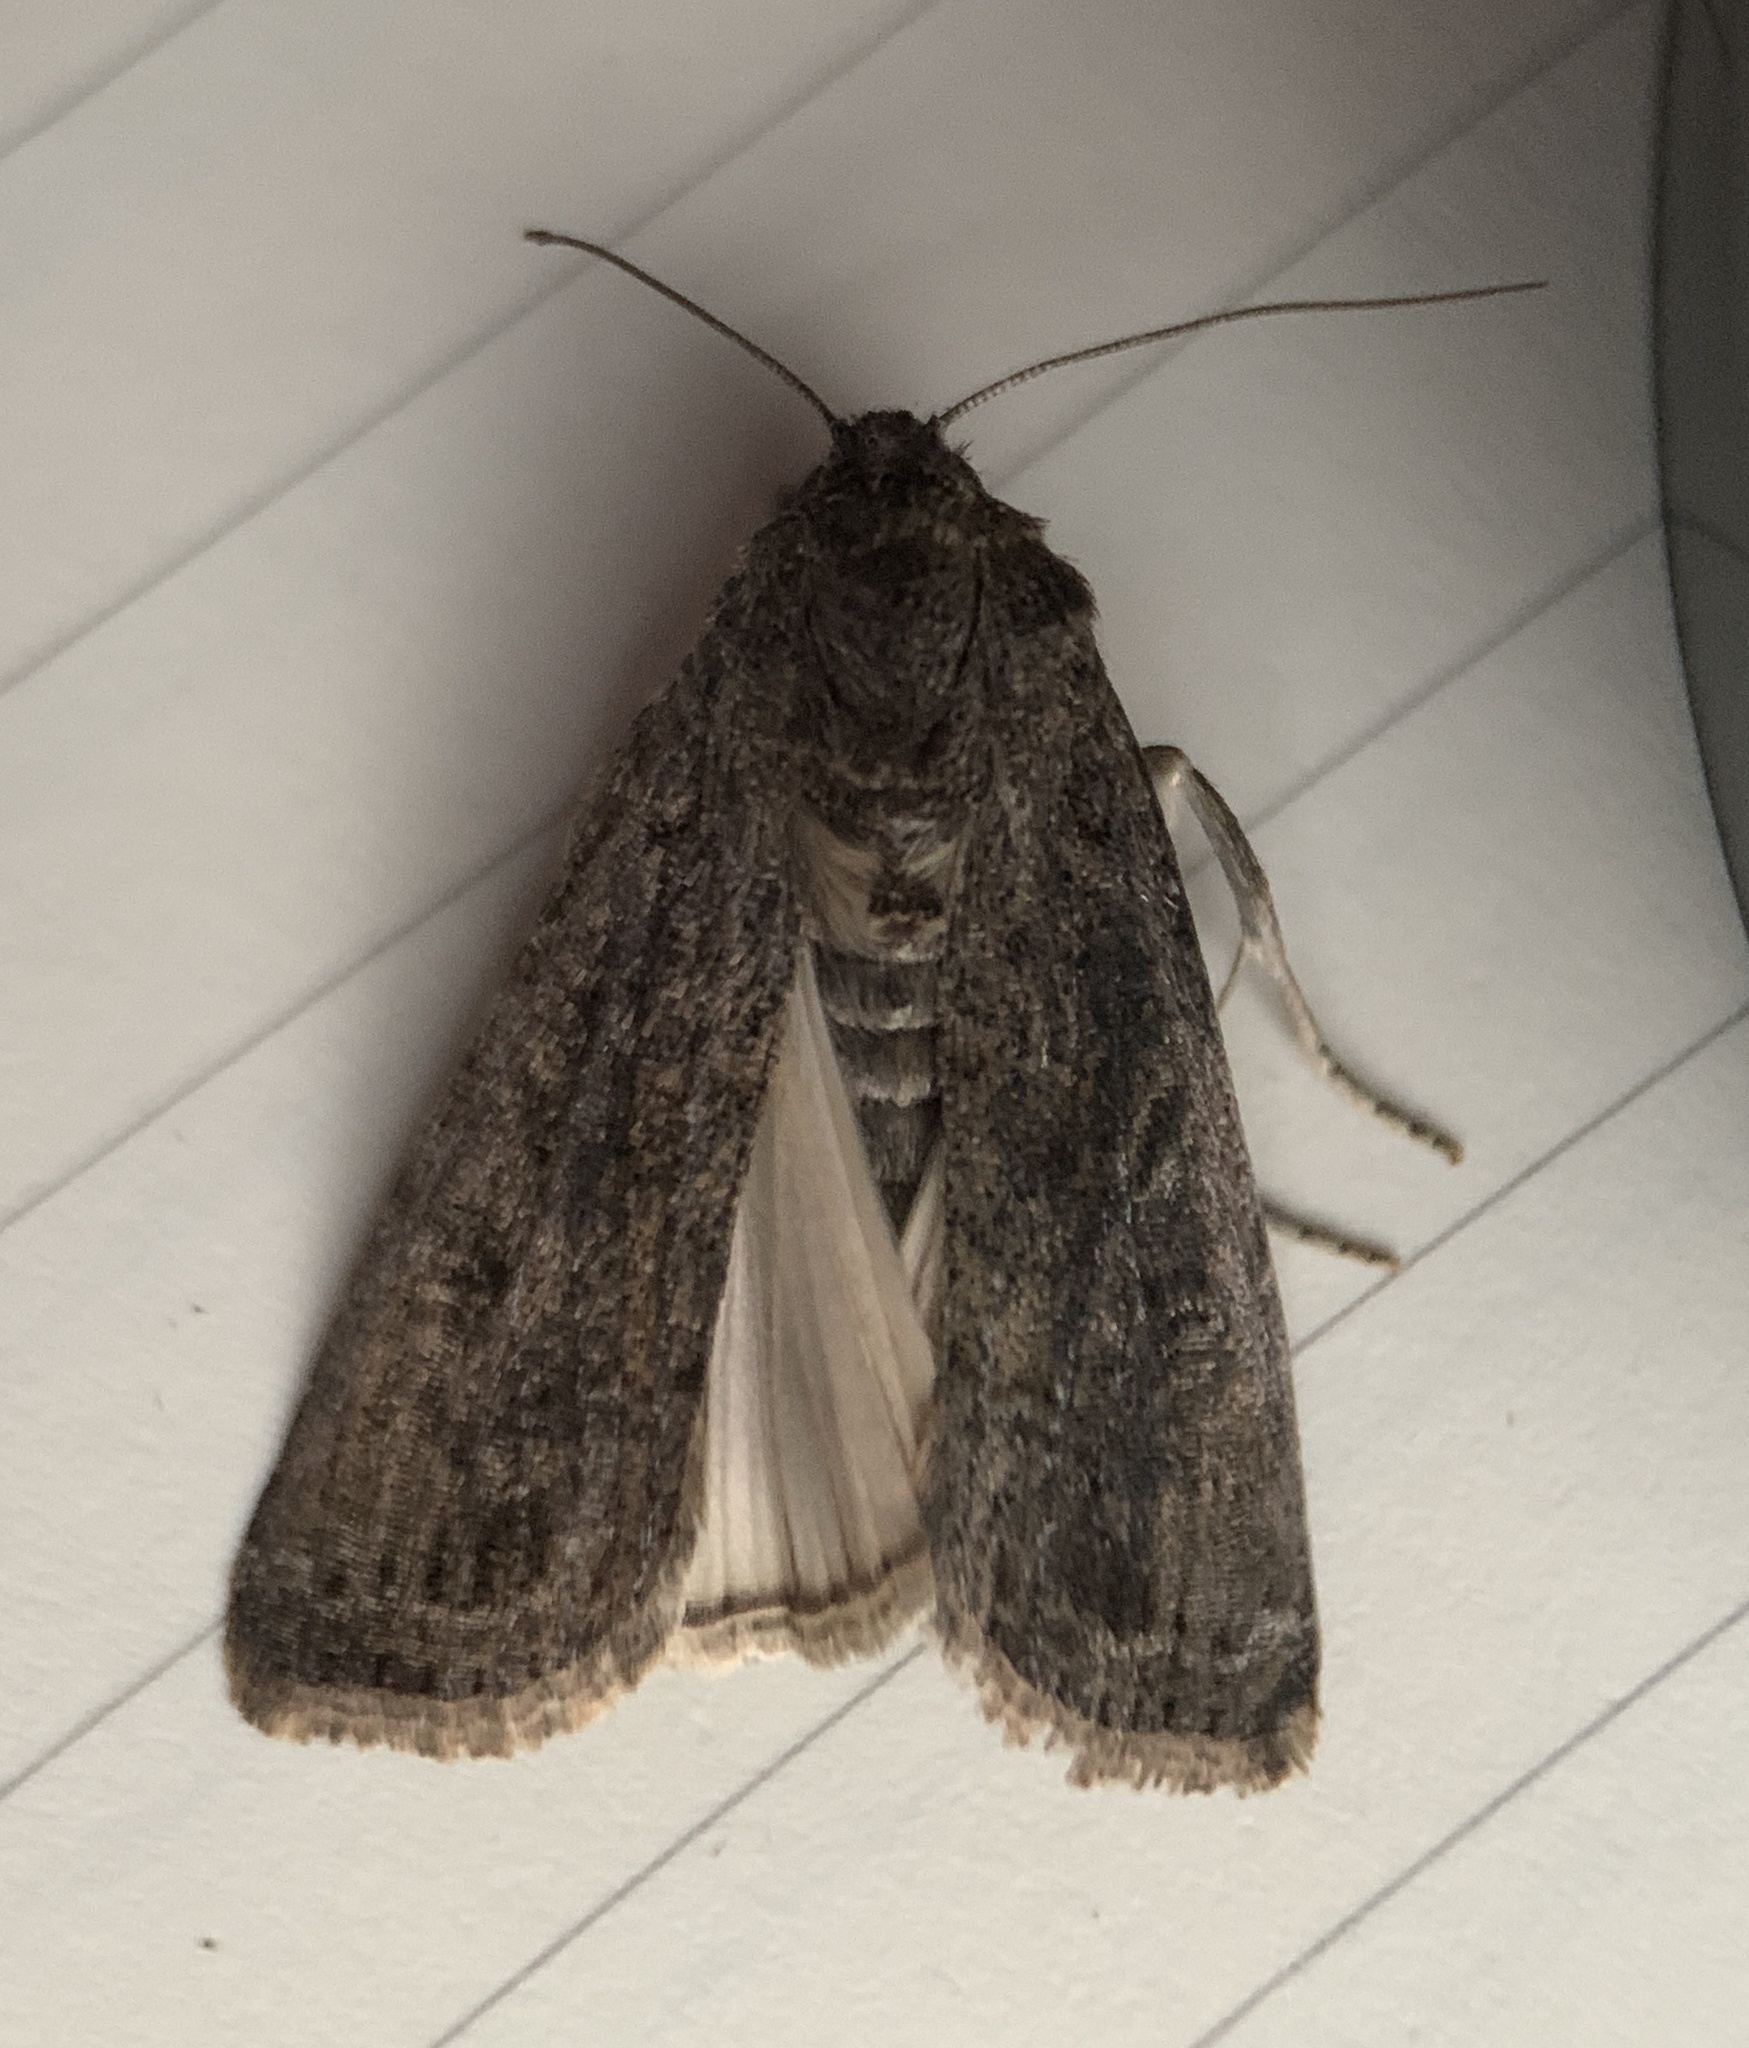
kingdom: Animalia
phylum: Arthropoda
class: Insecta
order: Lepidoptera
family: Noctuidae
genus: Spodoptera
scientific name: Spodoptera frugiperda
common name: Fall armyworm
